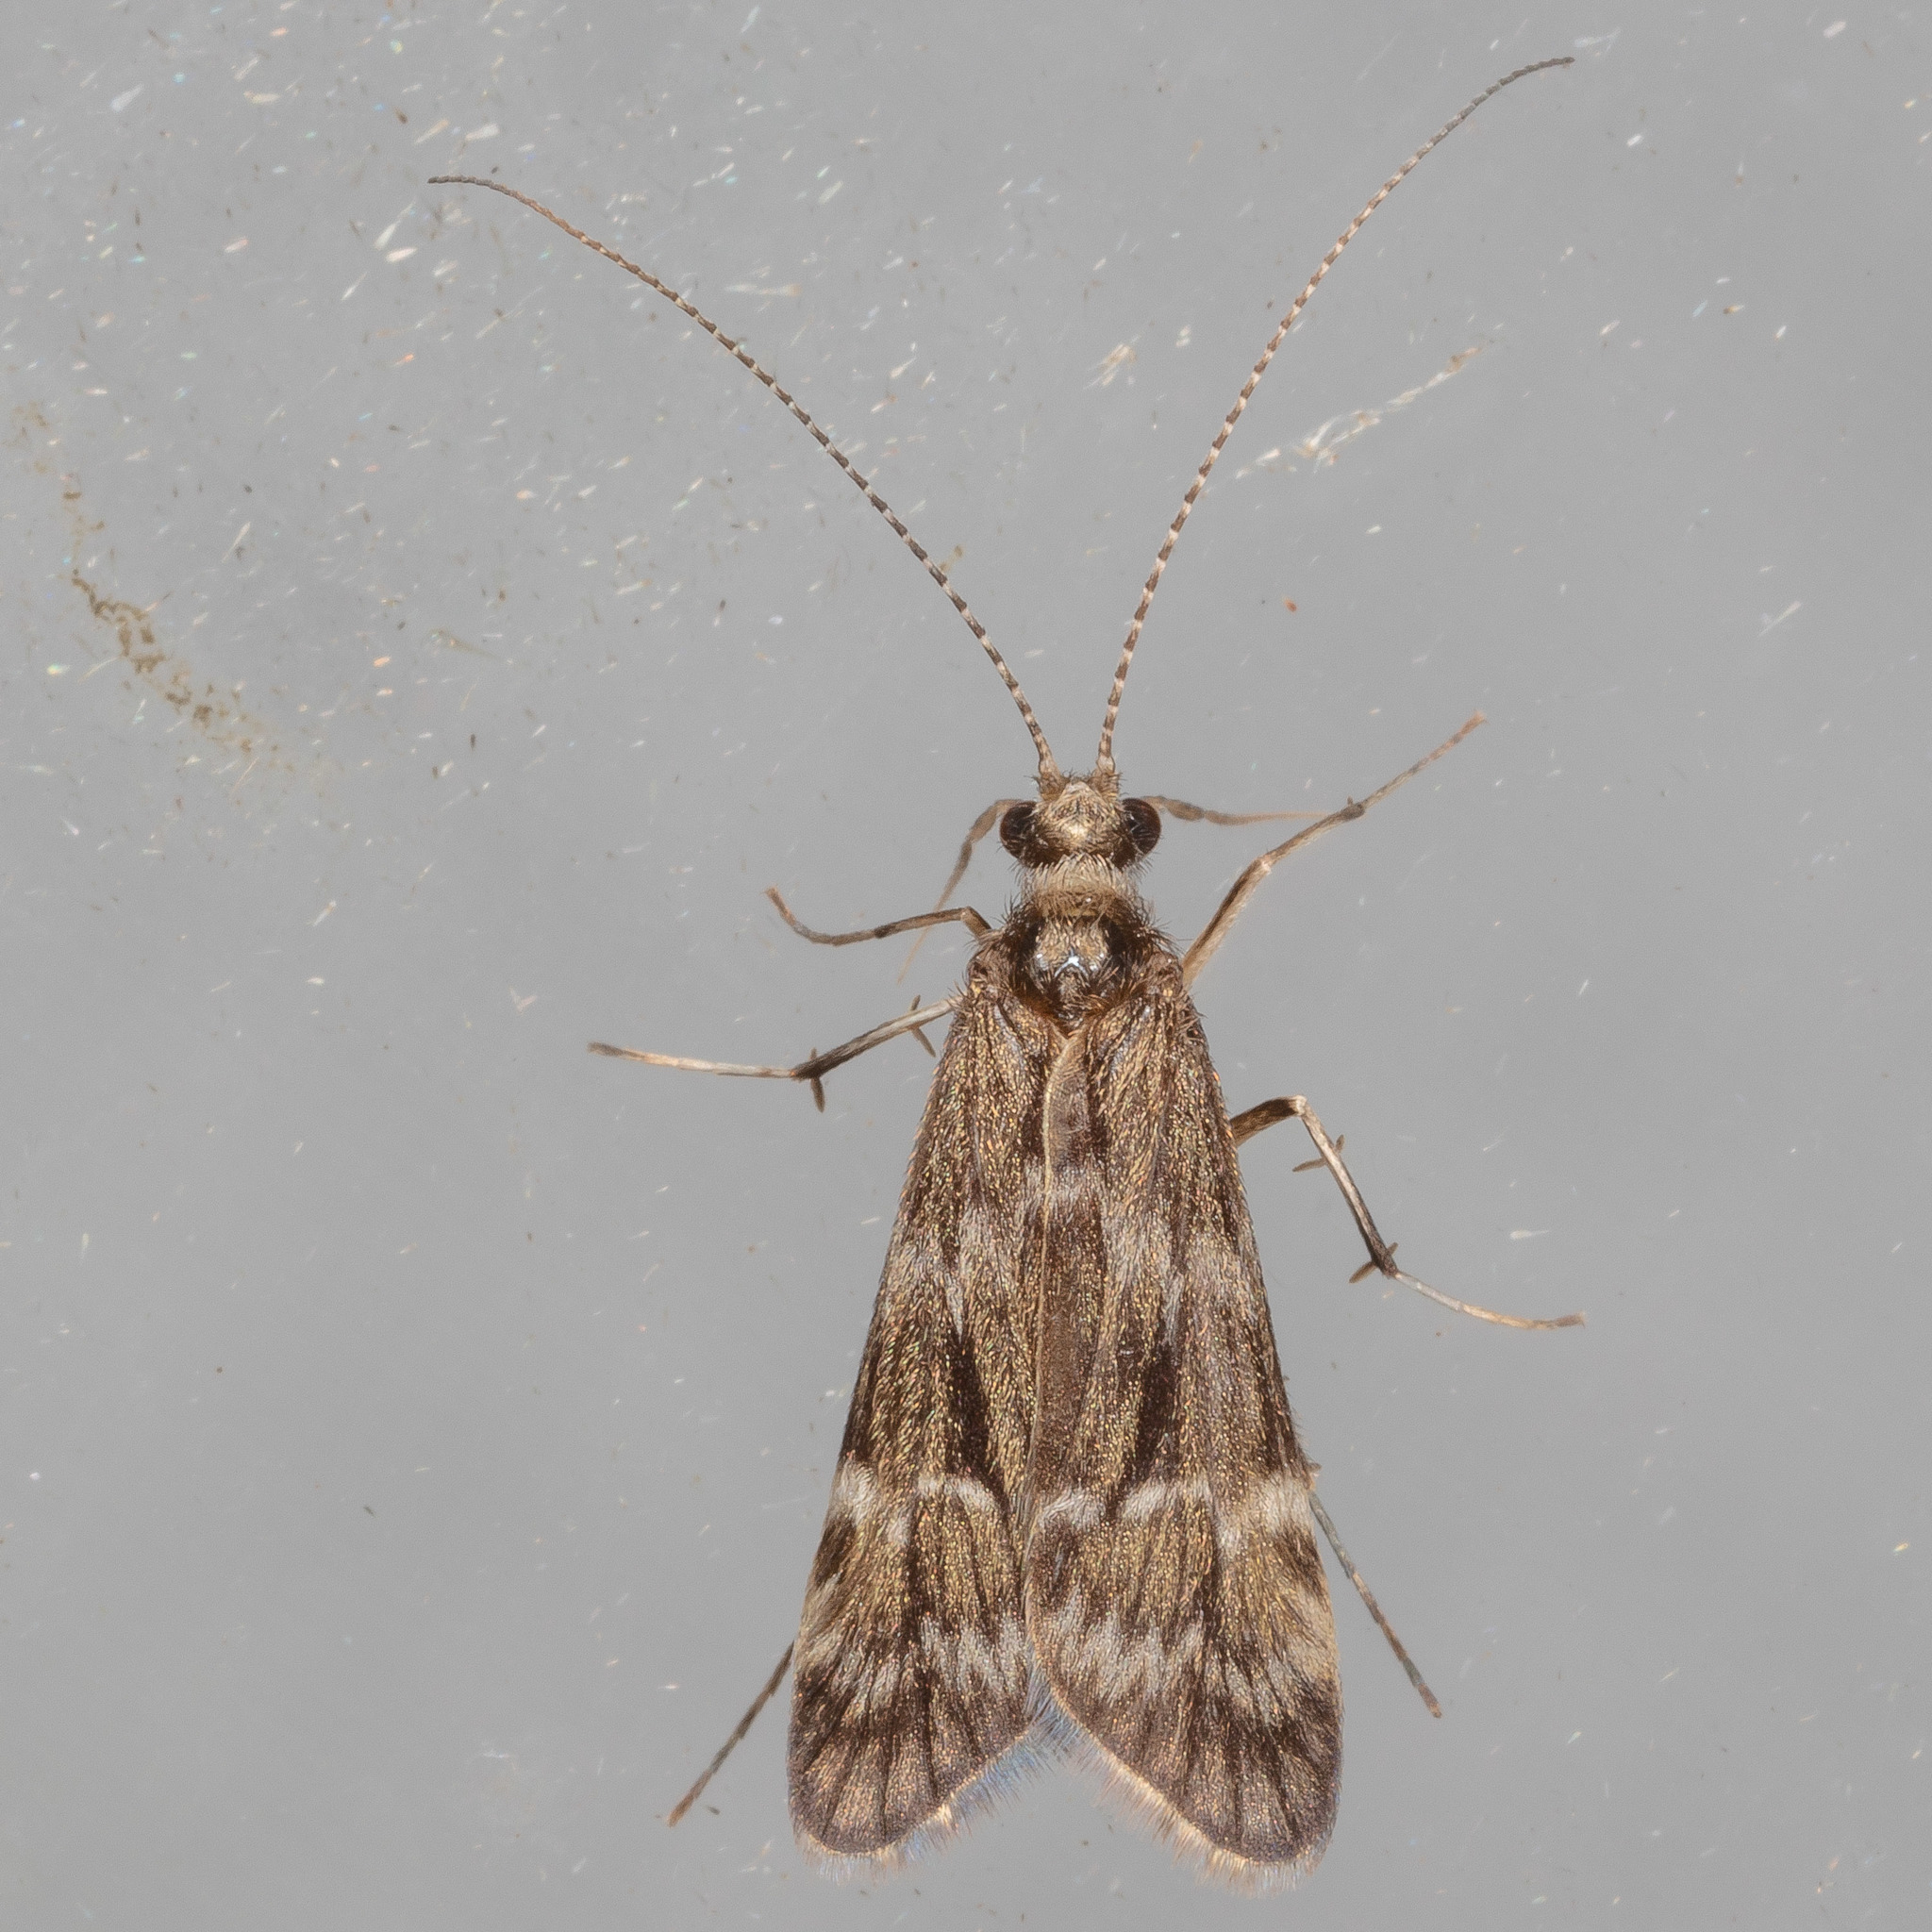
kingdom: Animalia
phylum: Arthropoda
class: Insecta
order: Trichoptera
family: Hydropsychidae
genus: Smicridea
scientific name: Smicridea fasciatella
